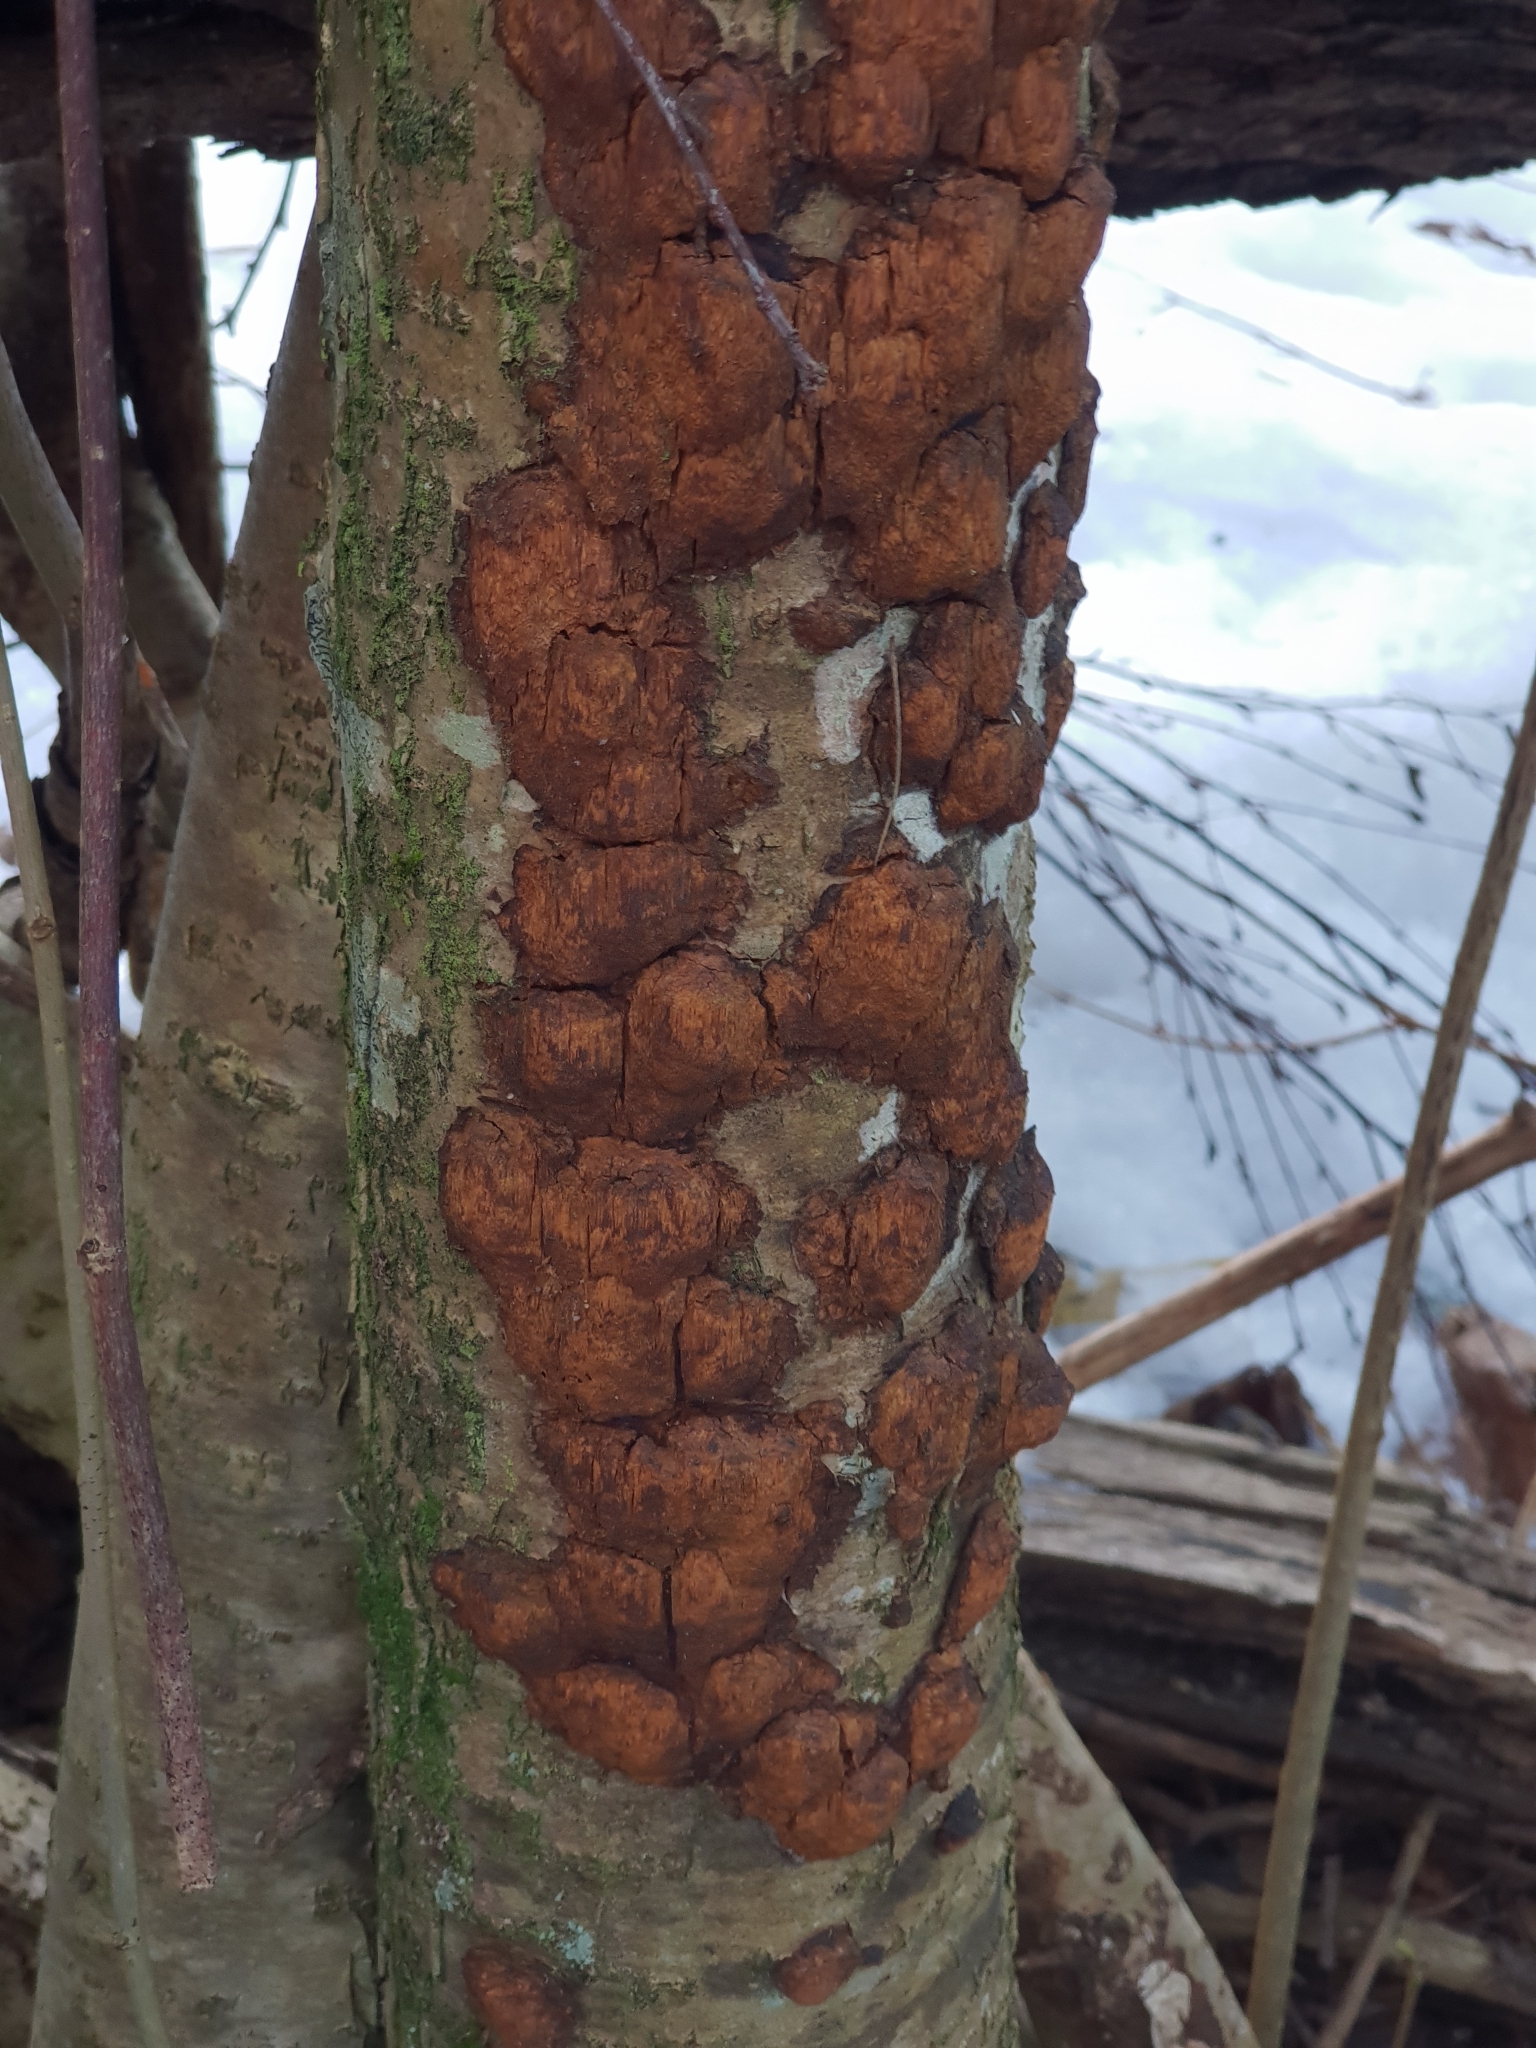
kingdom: Fungi
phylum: Basidiomycota
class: Agaricomycetes
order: Hymenochaetales
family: Hymenochaetaceae
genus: Xanthoporia
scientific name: Xanthoporia radiata
